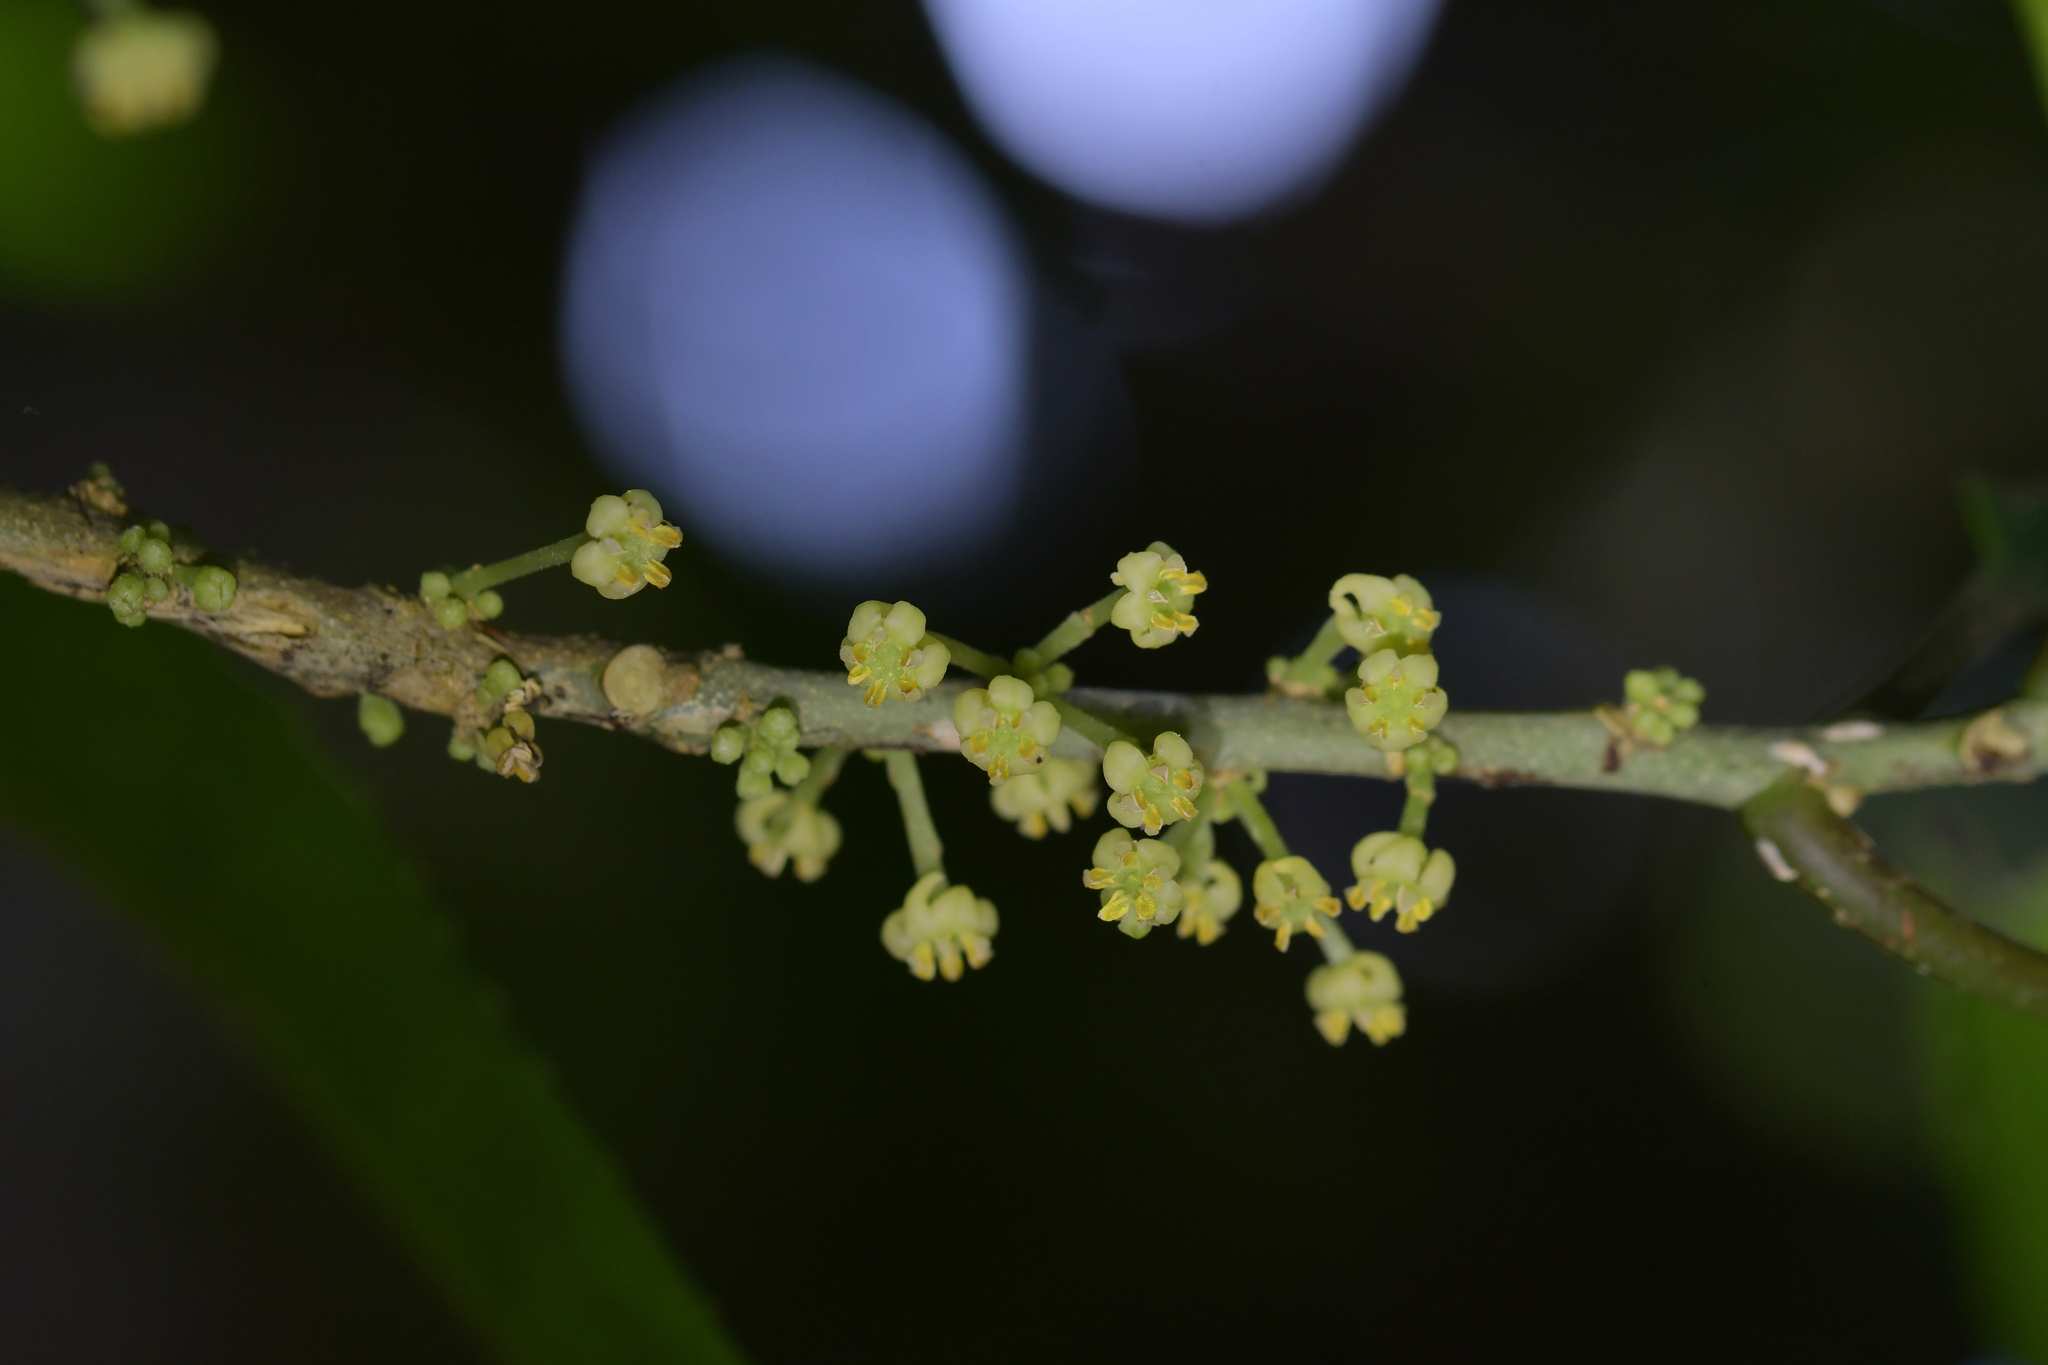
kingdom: Plantae
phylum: Tracheophyta
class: Magnoliopsida
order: Malpighiales
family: Violaceae
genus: Melicytus
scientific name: Melicytus ramiflorus
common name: Mahoe
